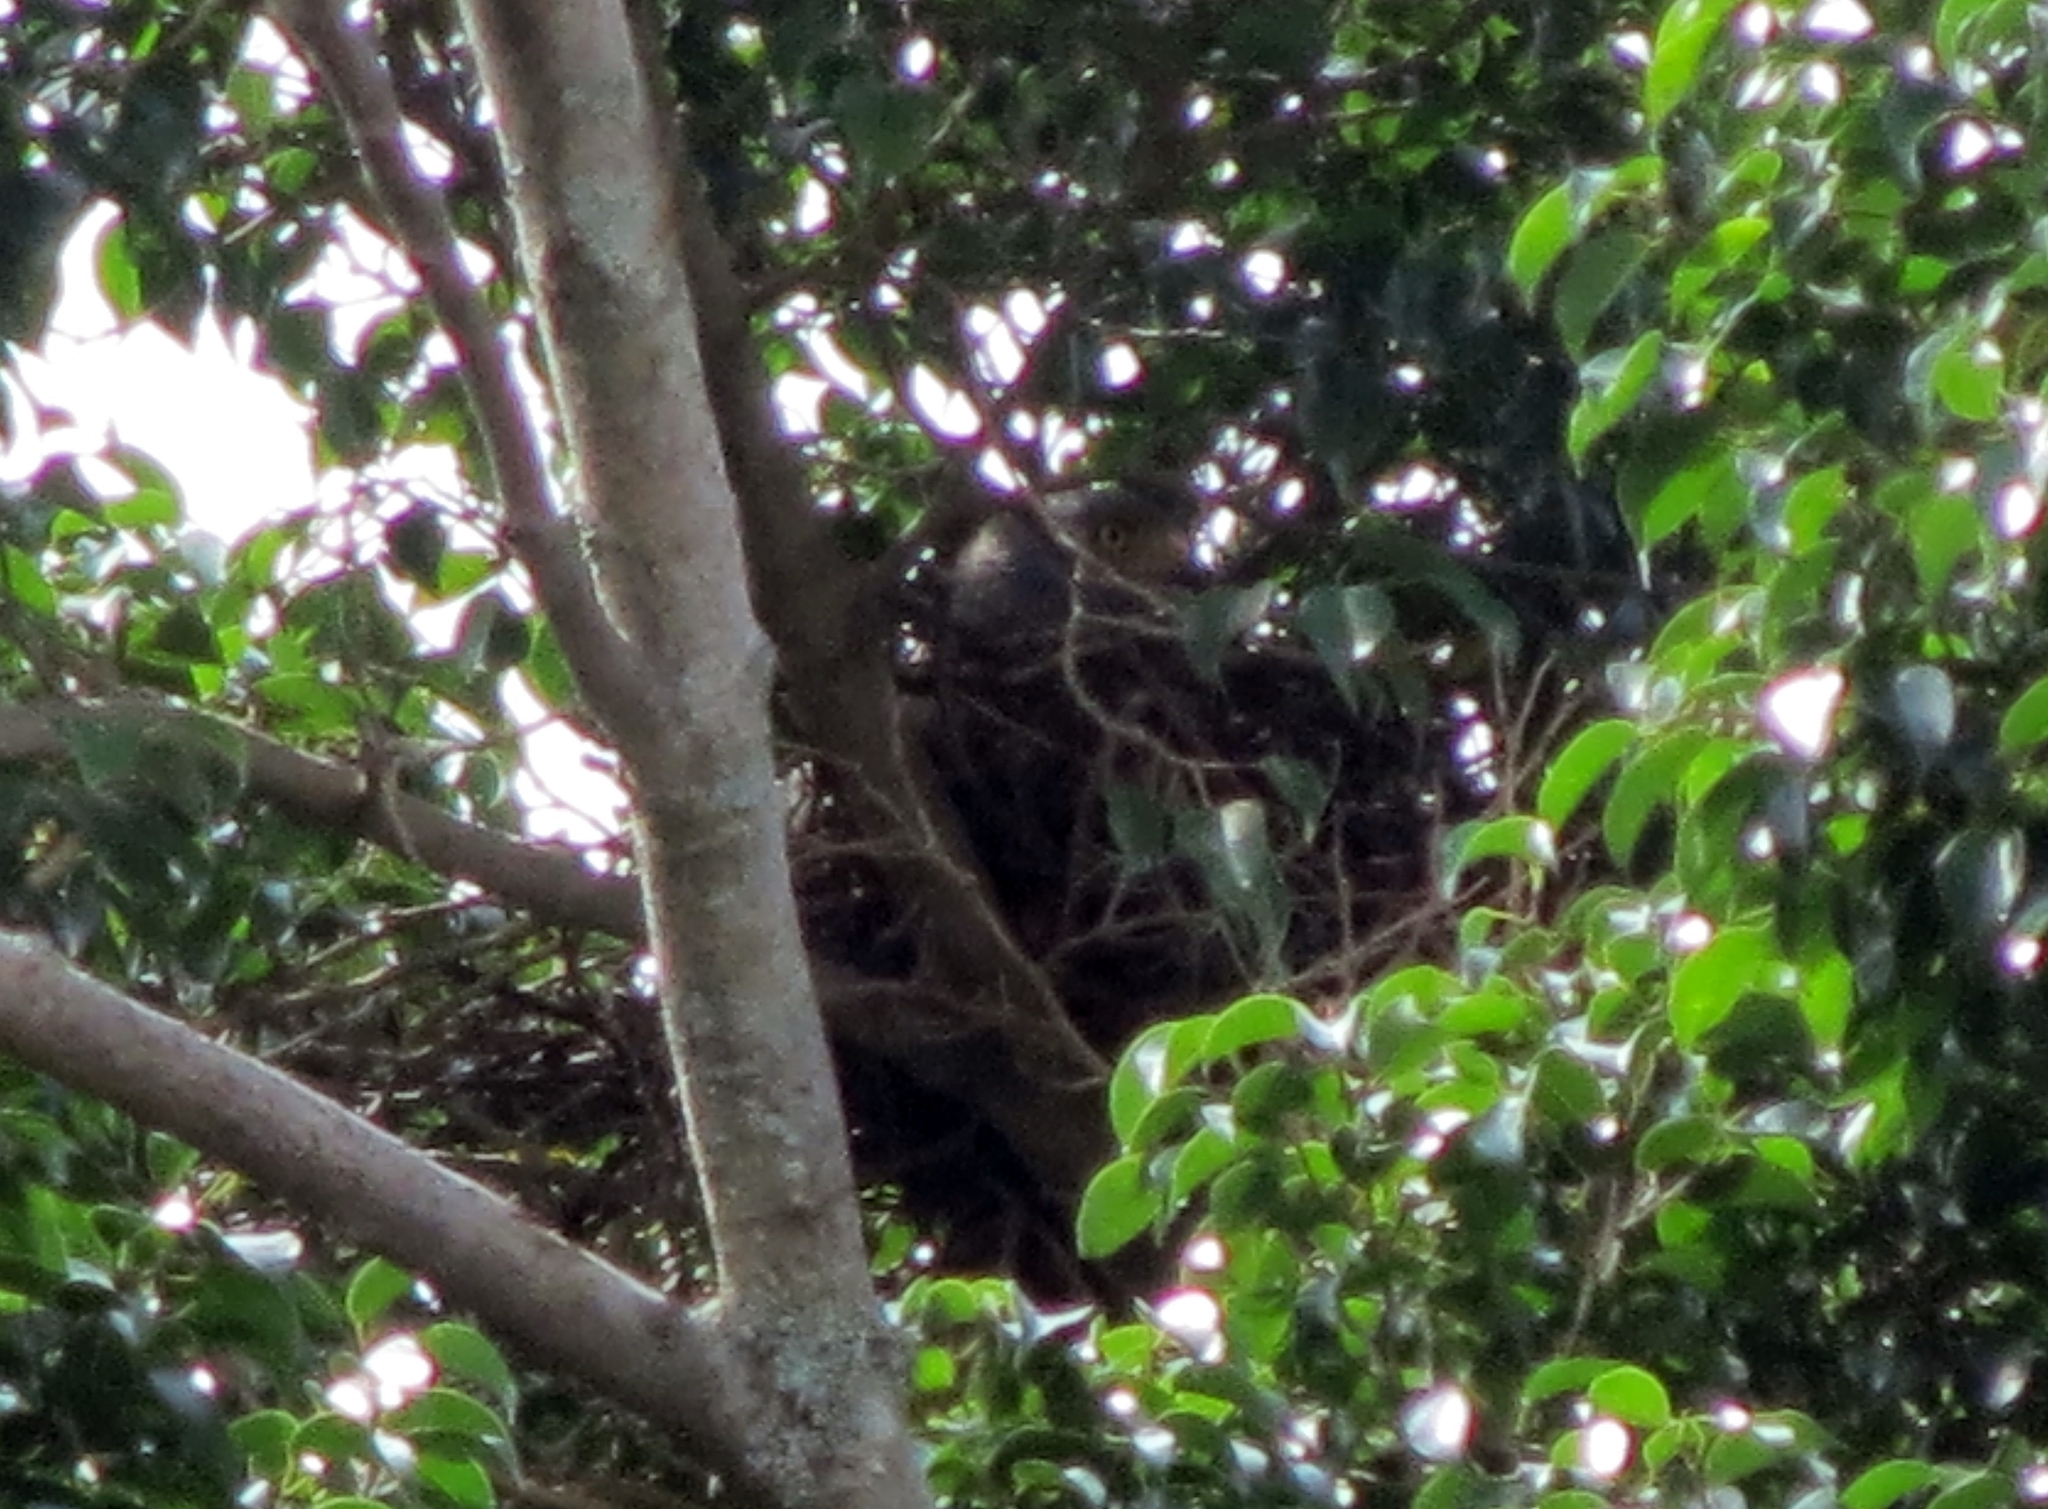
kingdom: Animalia
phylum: Chordata
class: Aves
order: Accipitriformes
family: Accipitridae
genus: Rupornis
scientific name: Rupornis magnirostris
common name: Roadside hawk
